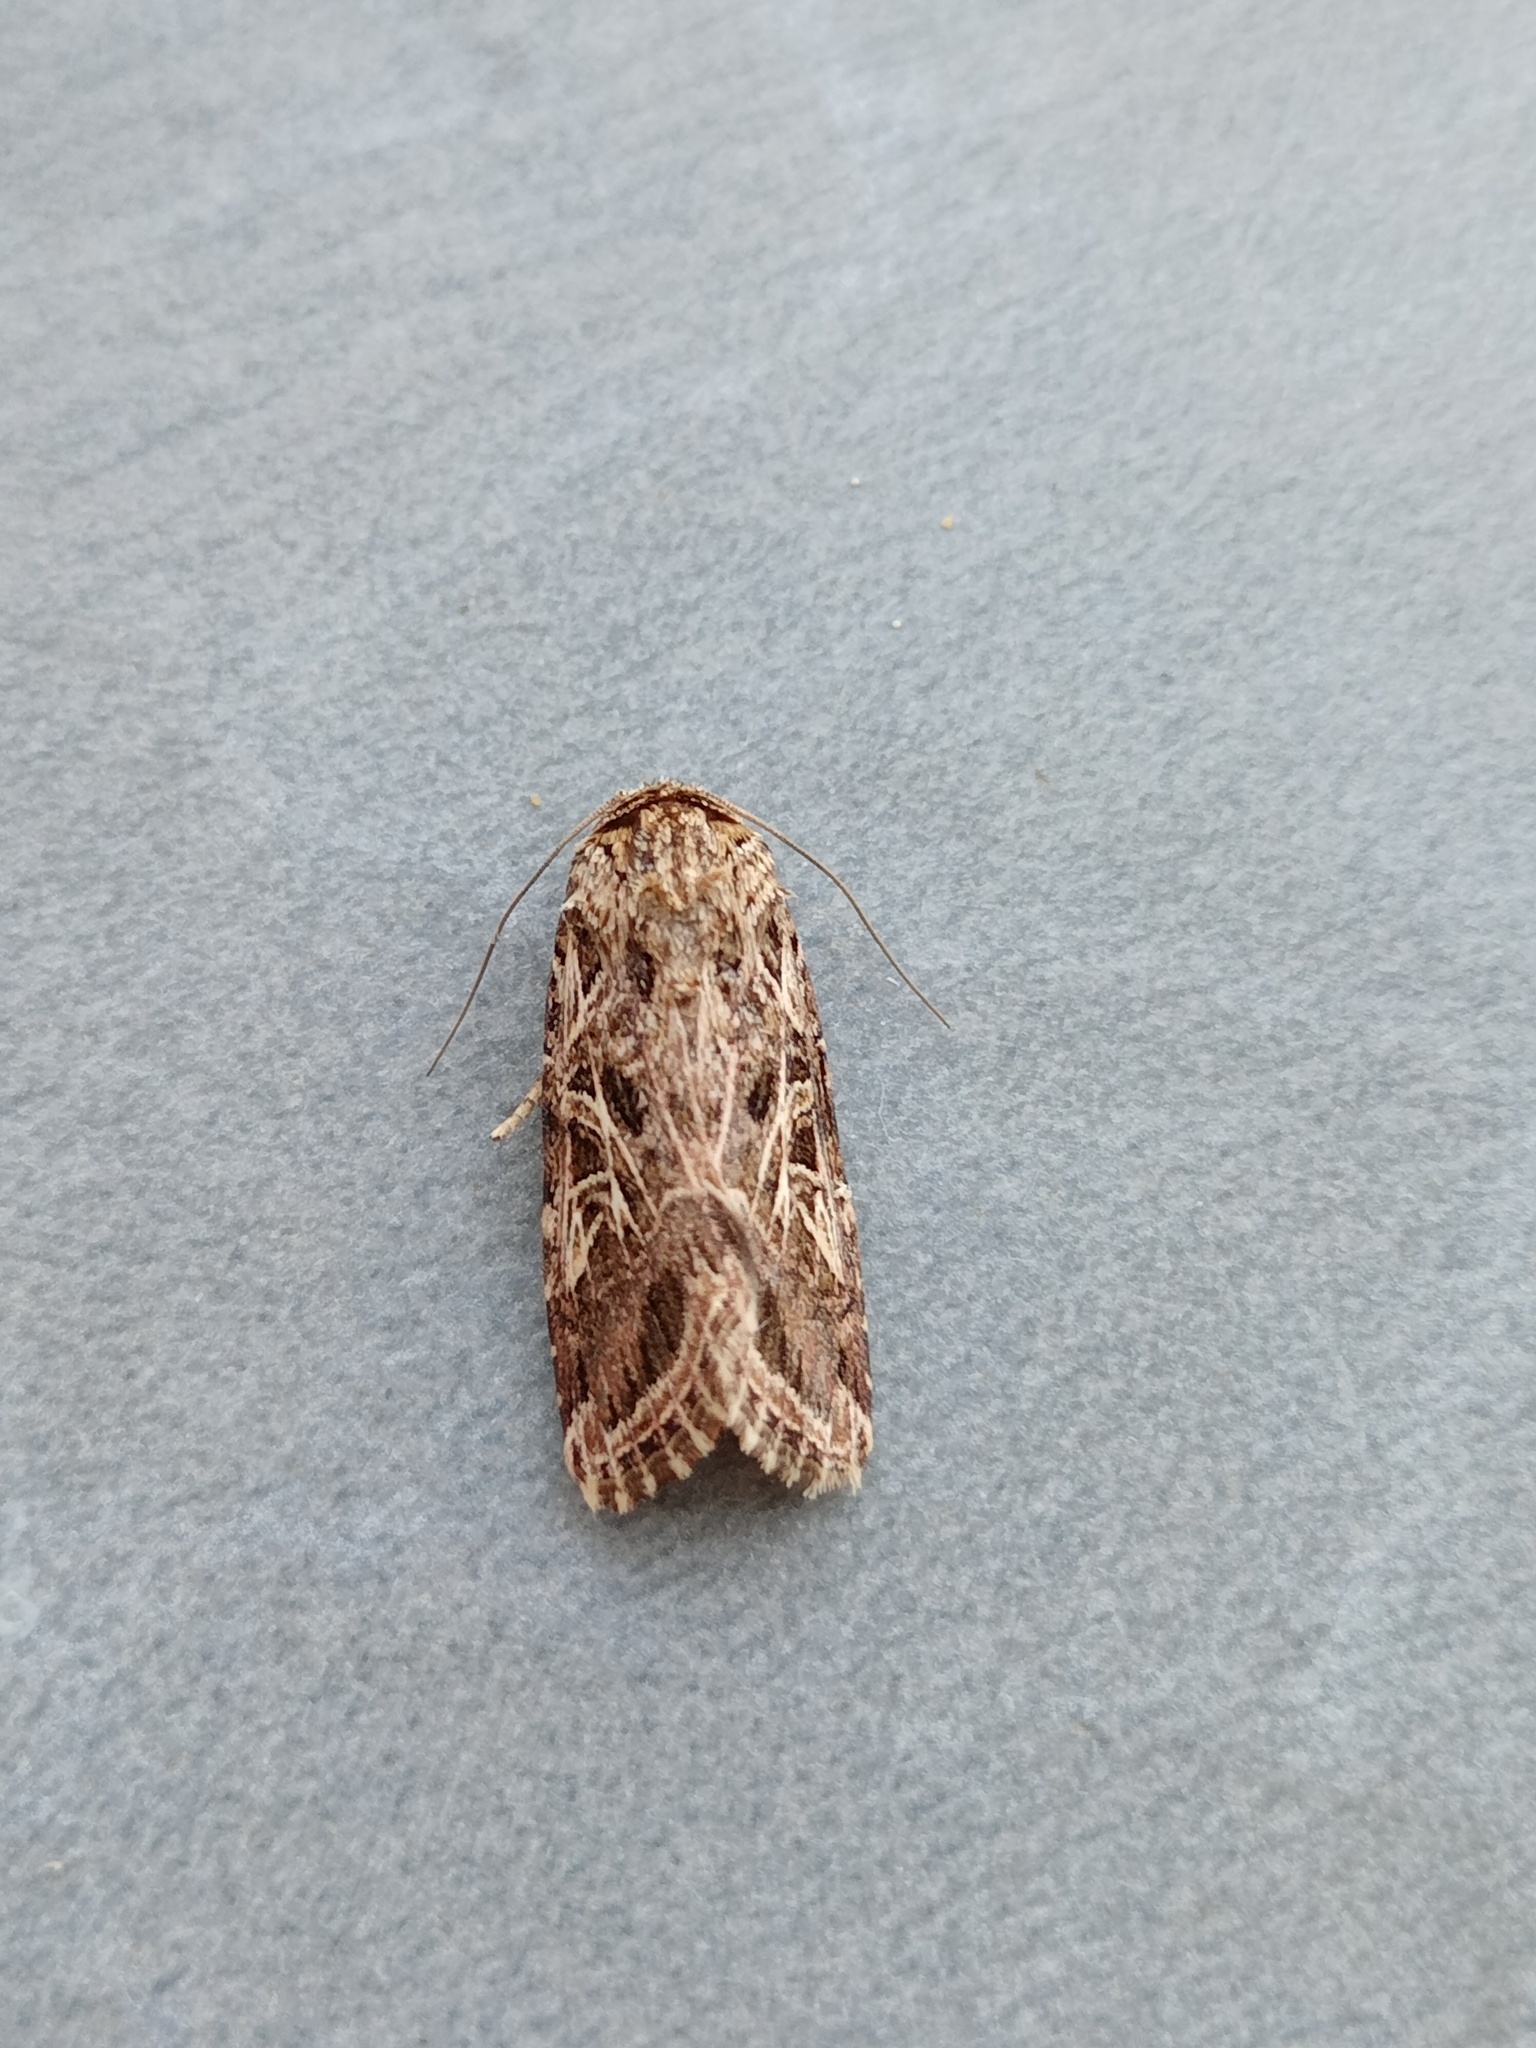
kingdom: Animalia
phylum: Arthropoda
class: Insecta
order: Lepidoptera
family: Noctuidae
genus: Spodoptera
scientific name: Spodoptera littoralis
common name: Egyptian cotton leafworm
